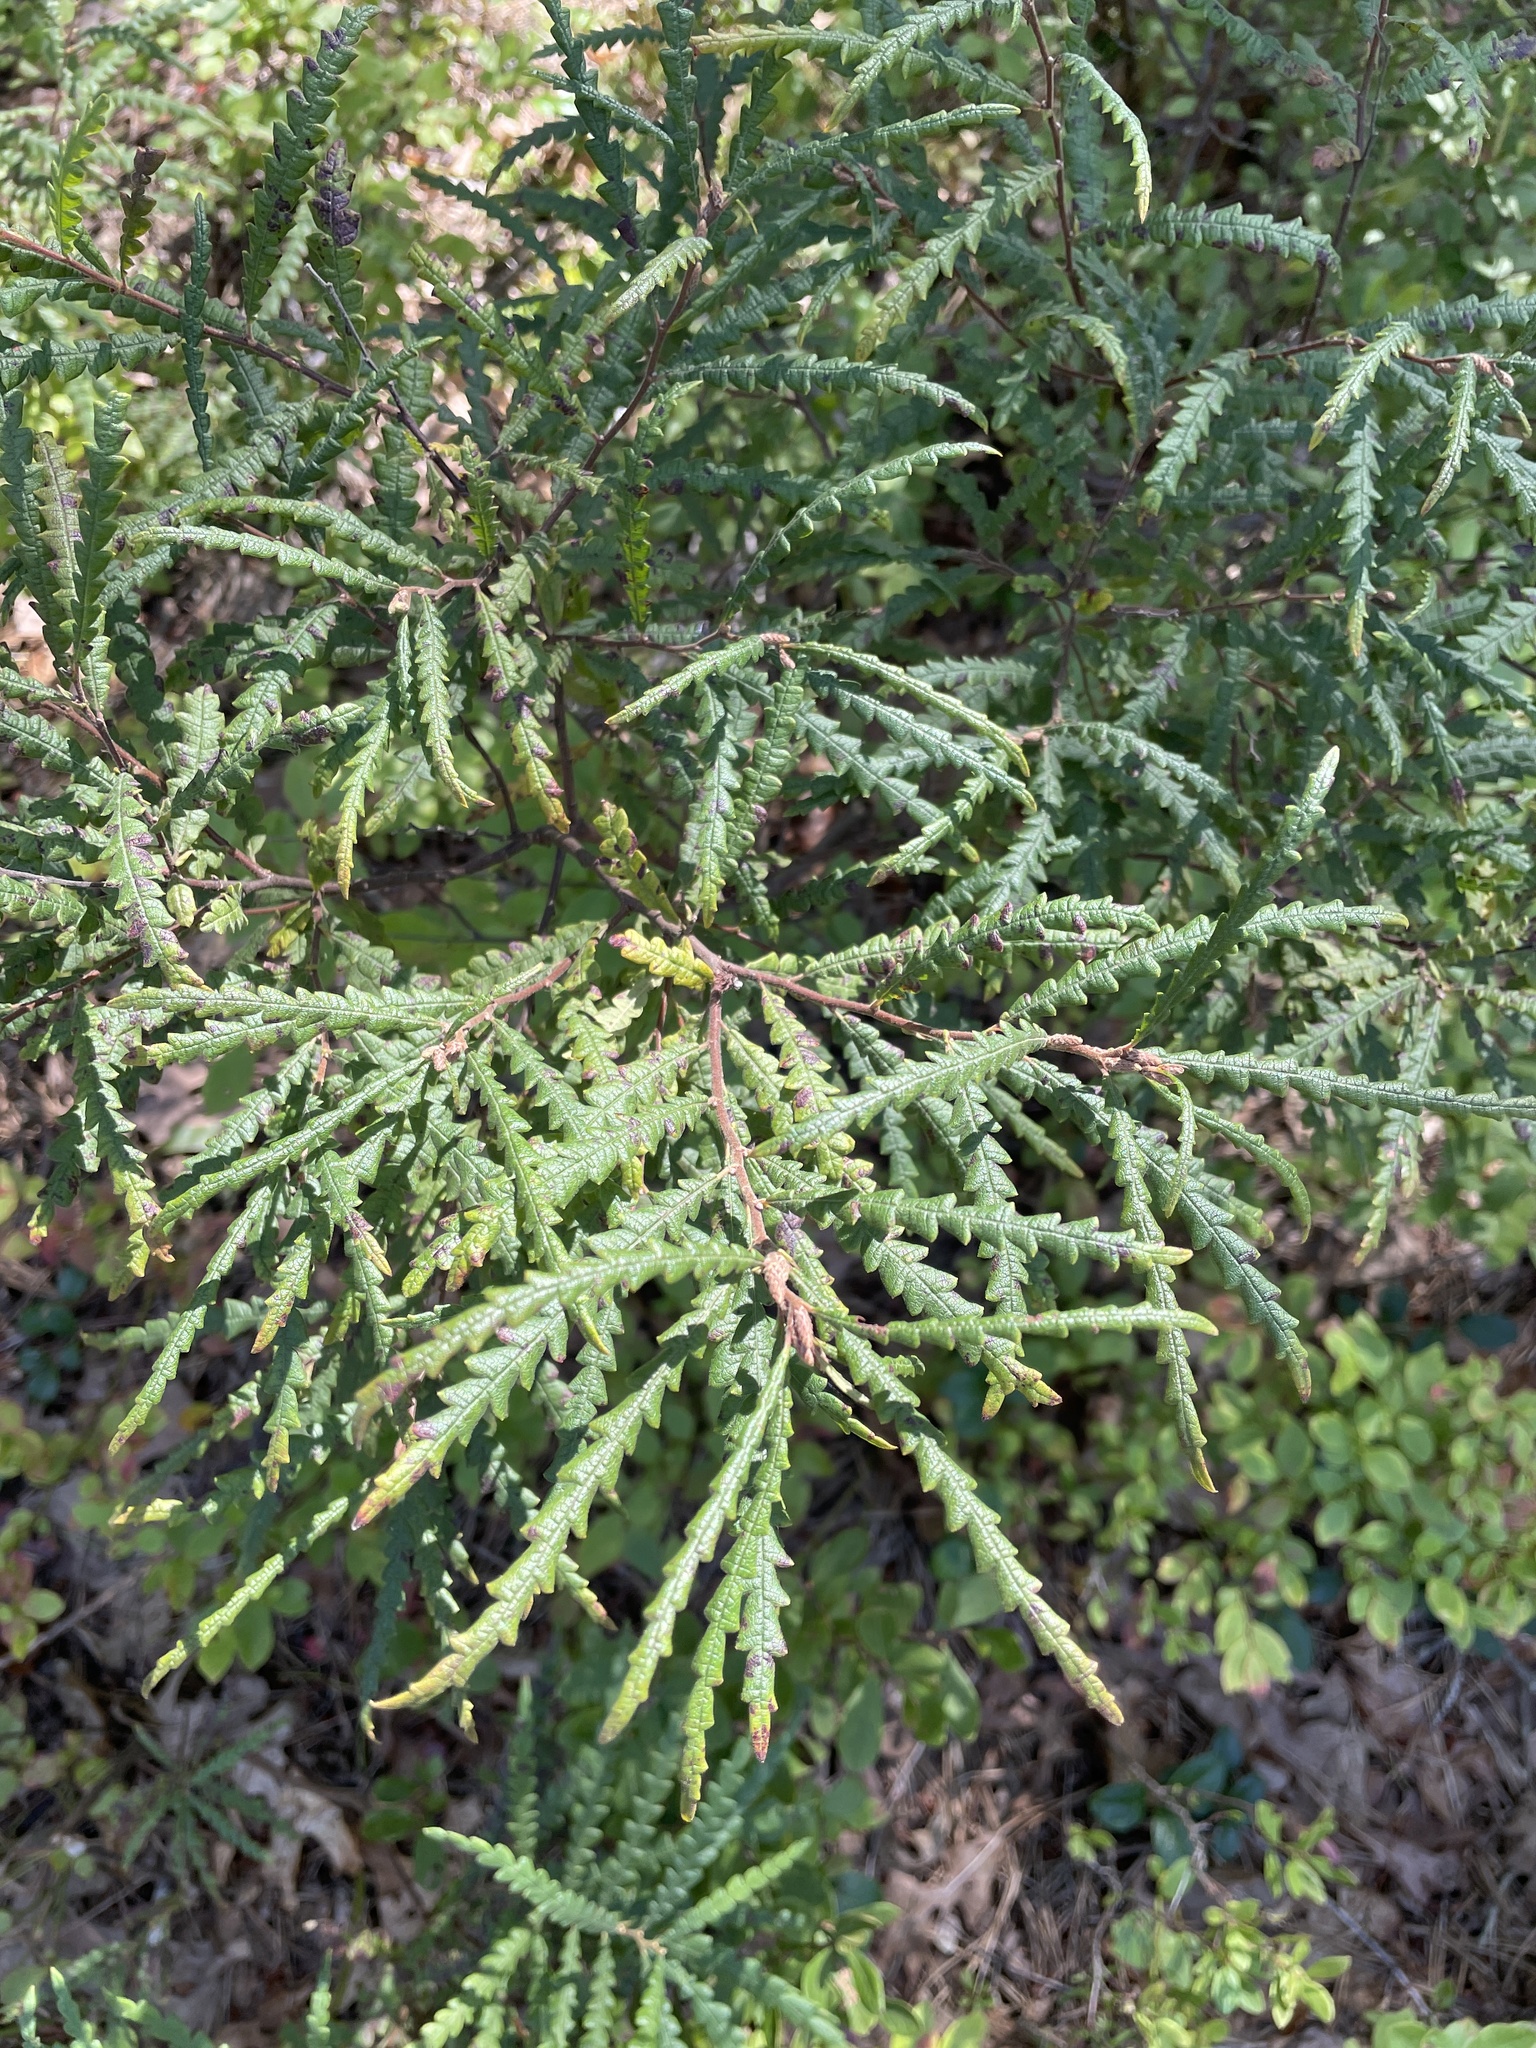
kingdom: Plantae
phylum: Tracheophyta
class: Magnoliopsida
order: Fagales
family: Myricaceae
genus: Comptonia
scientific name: Comptonia peregrina
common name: Sweet-fern
